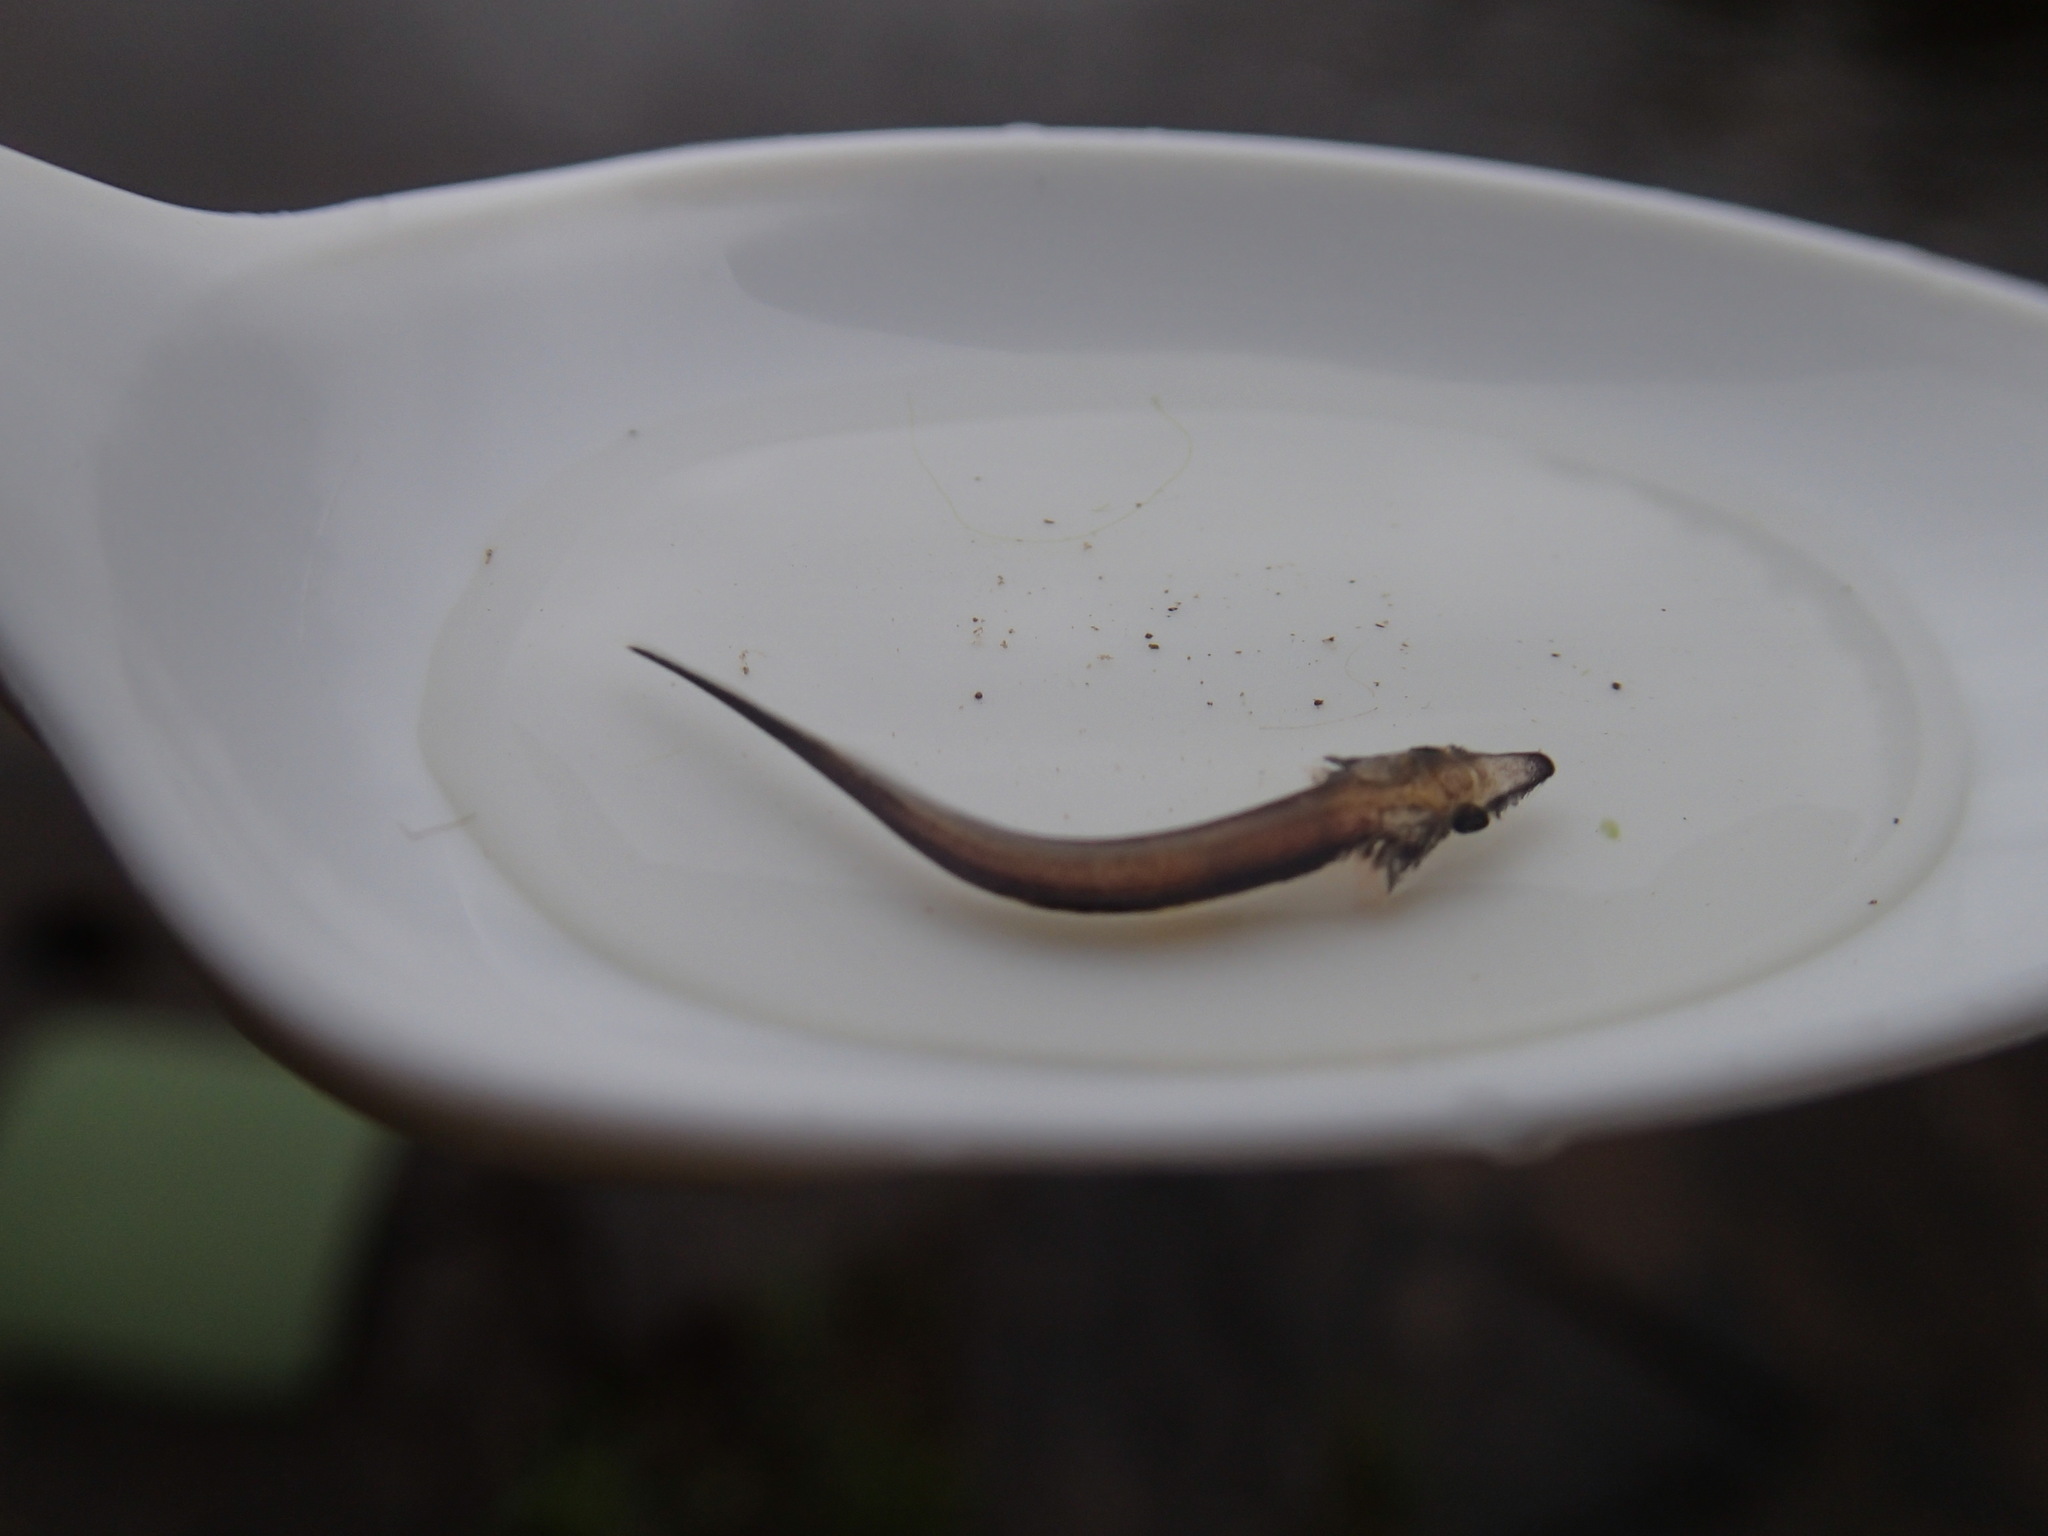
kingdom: Animalia
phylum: Chordata
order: Acipenseriformes
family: Acipenseridae
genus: Acipenser
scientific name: Acipenser fulvescens
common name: Lake sturgeon
